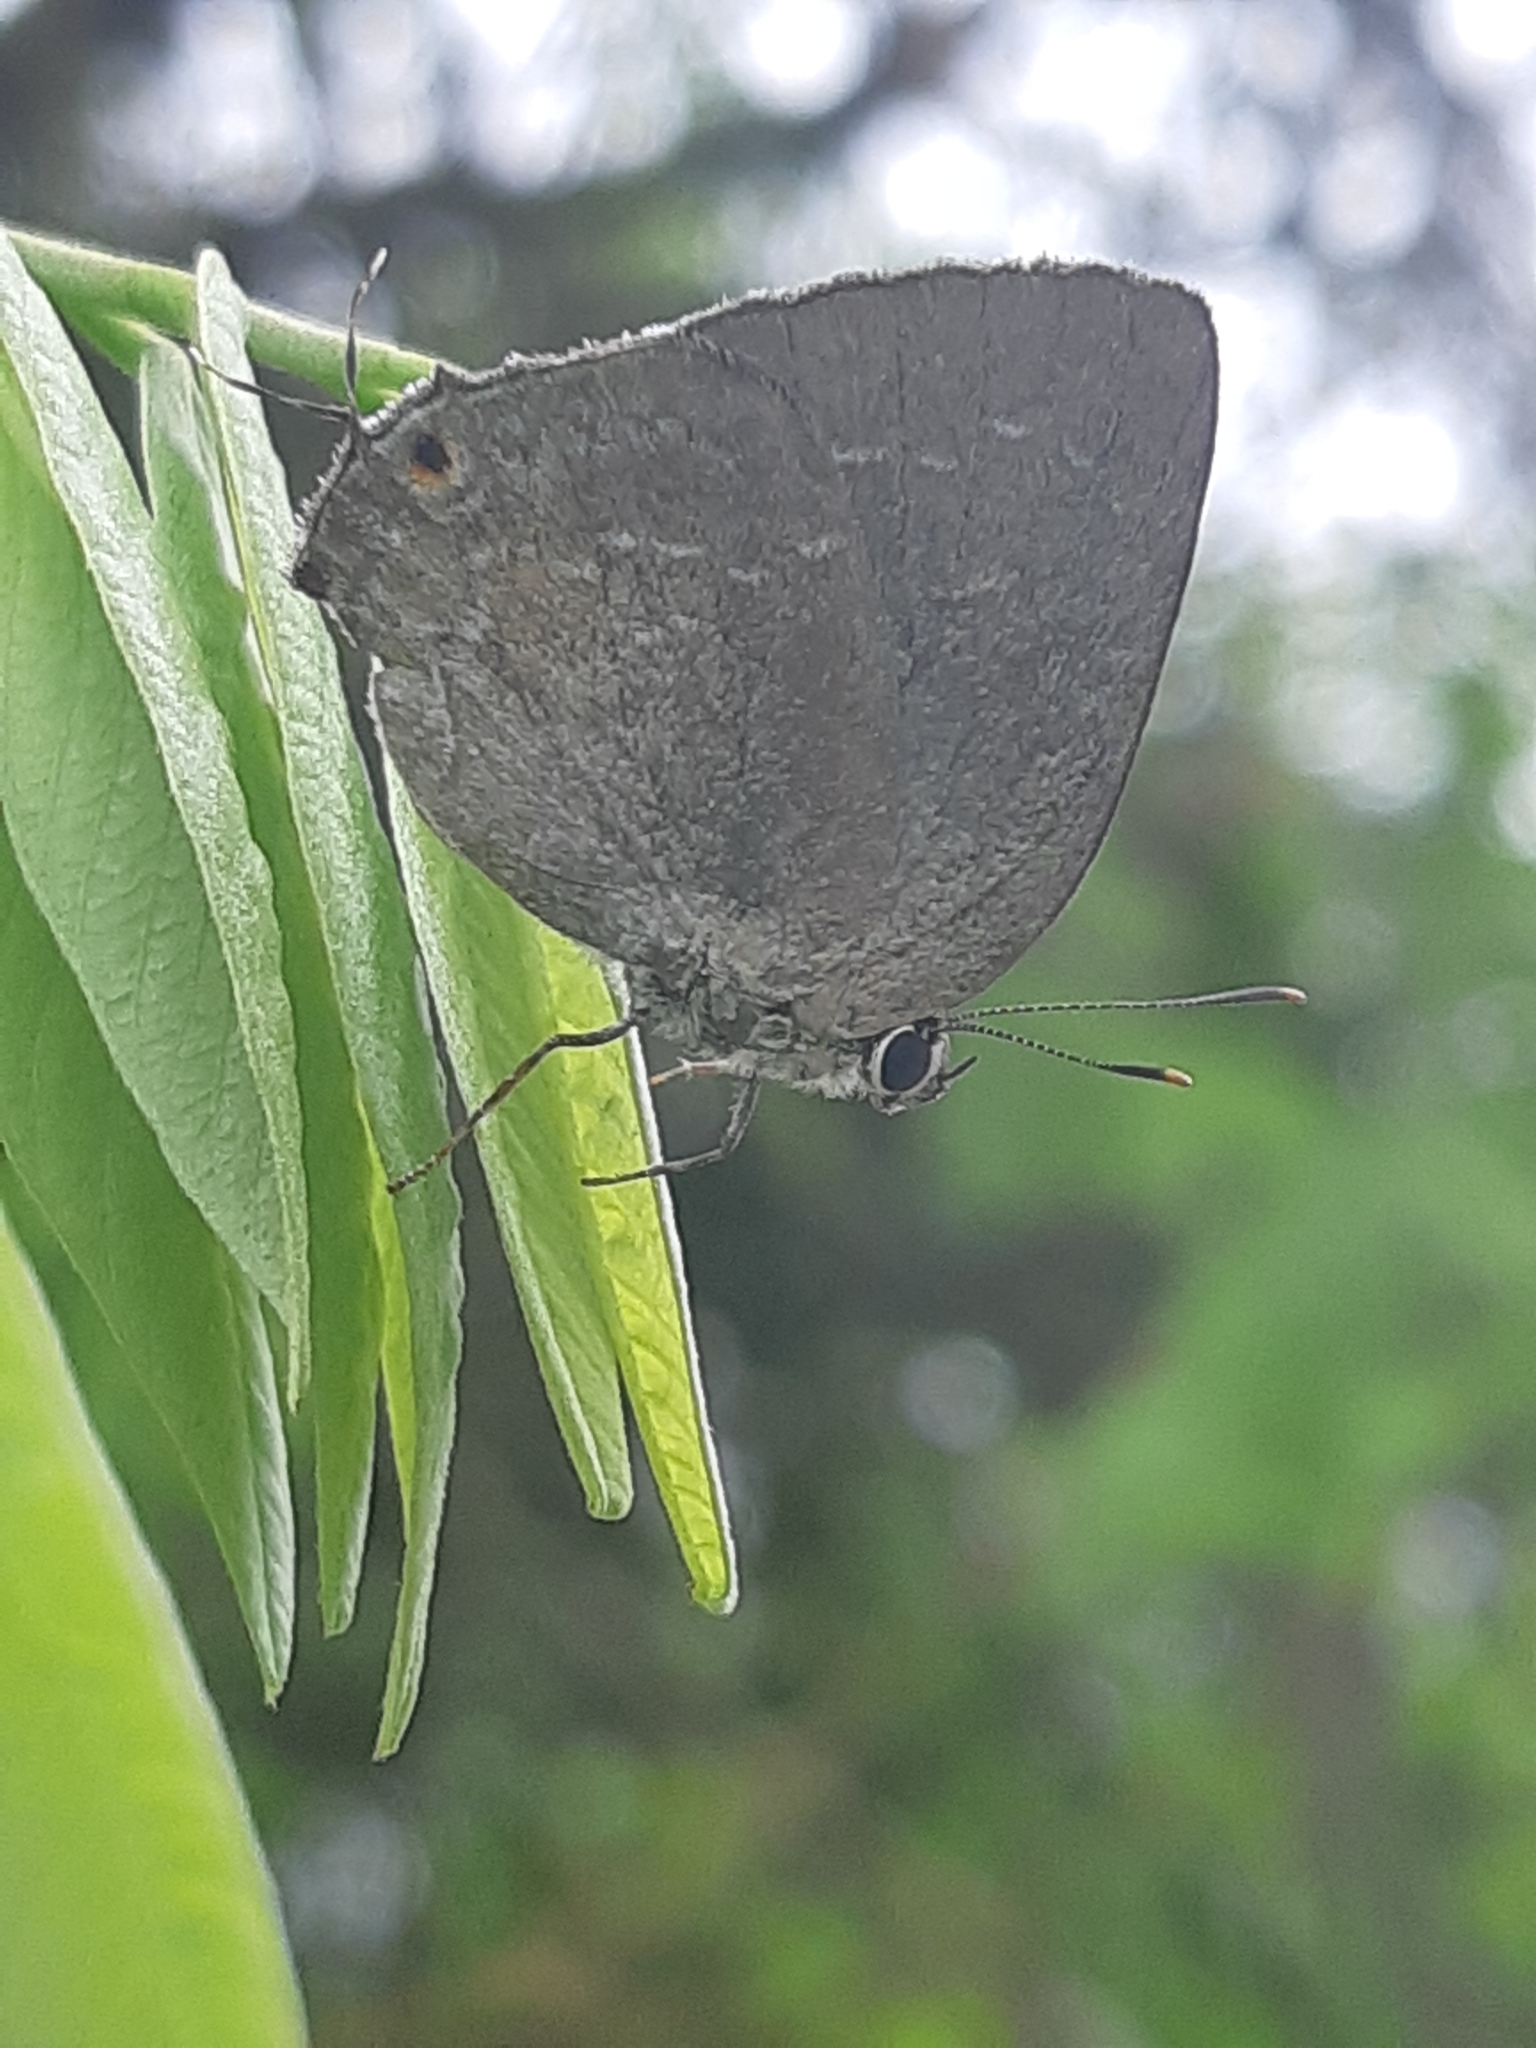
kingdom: Animalia
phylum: Arthropoda
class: Insecta
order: Lepidoptera
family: Lycaenidae
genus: Strephonota
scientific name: Strephonota tephraeus
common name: Pearly-gray hairstreak
